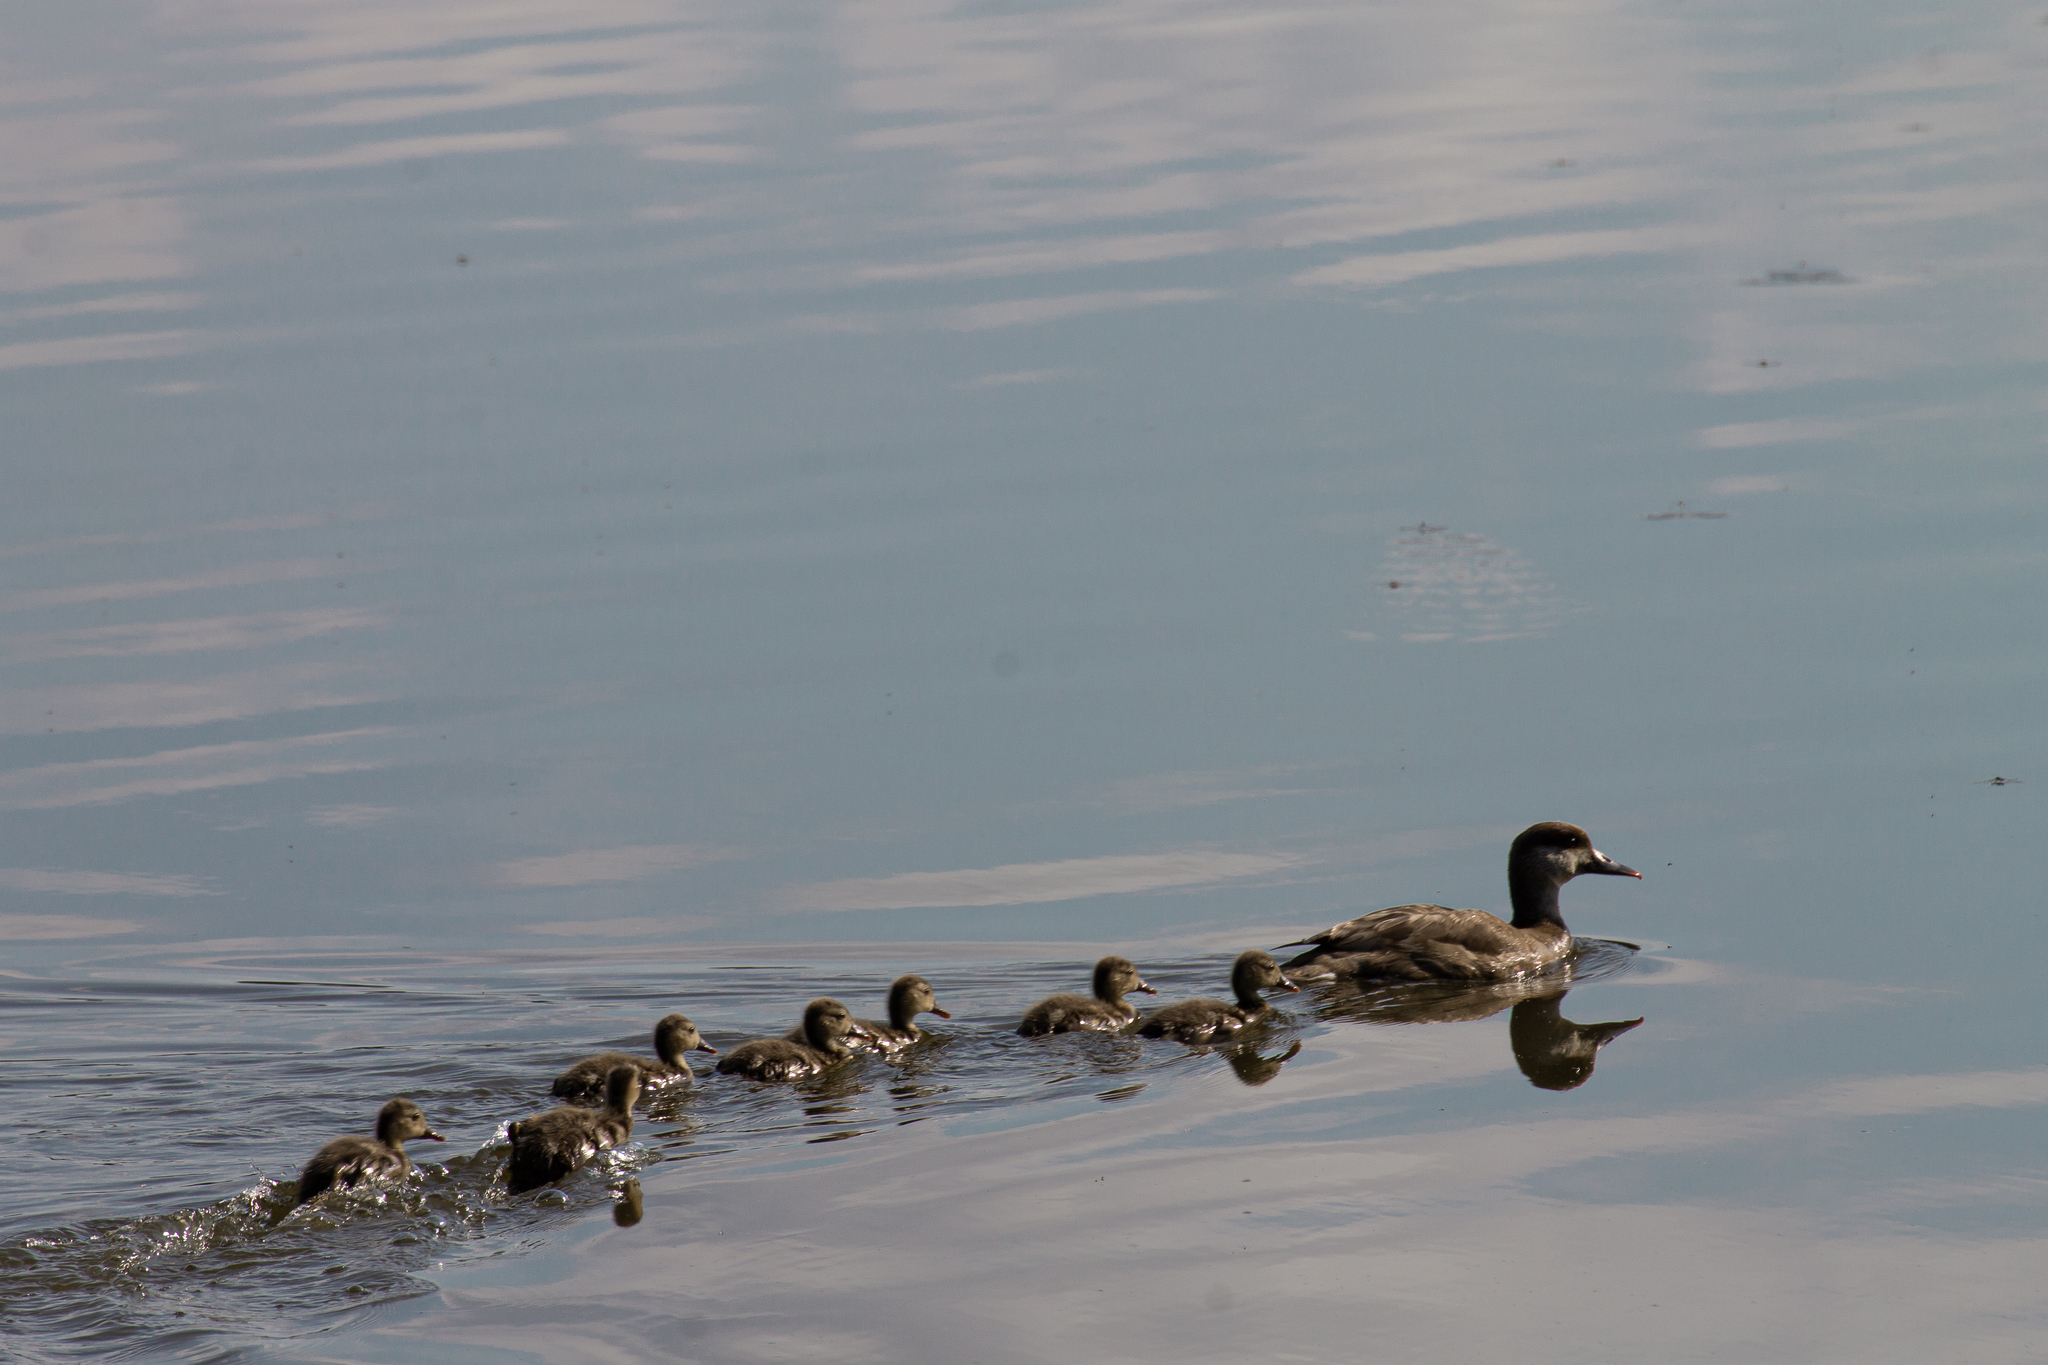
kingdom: Animalia
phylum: Chordata
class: Aves
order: Anseriformes
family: Anatidae
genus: Netta
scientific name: Netta rufina
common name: Red-crested pochard
